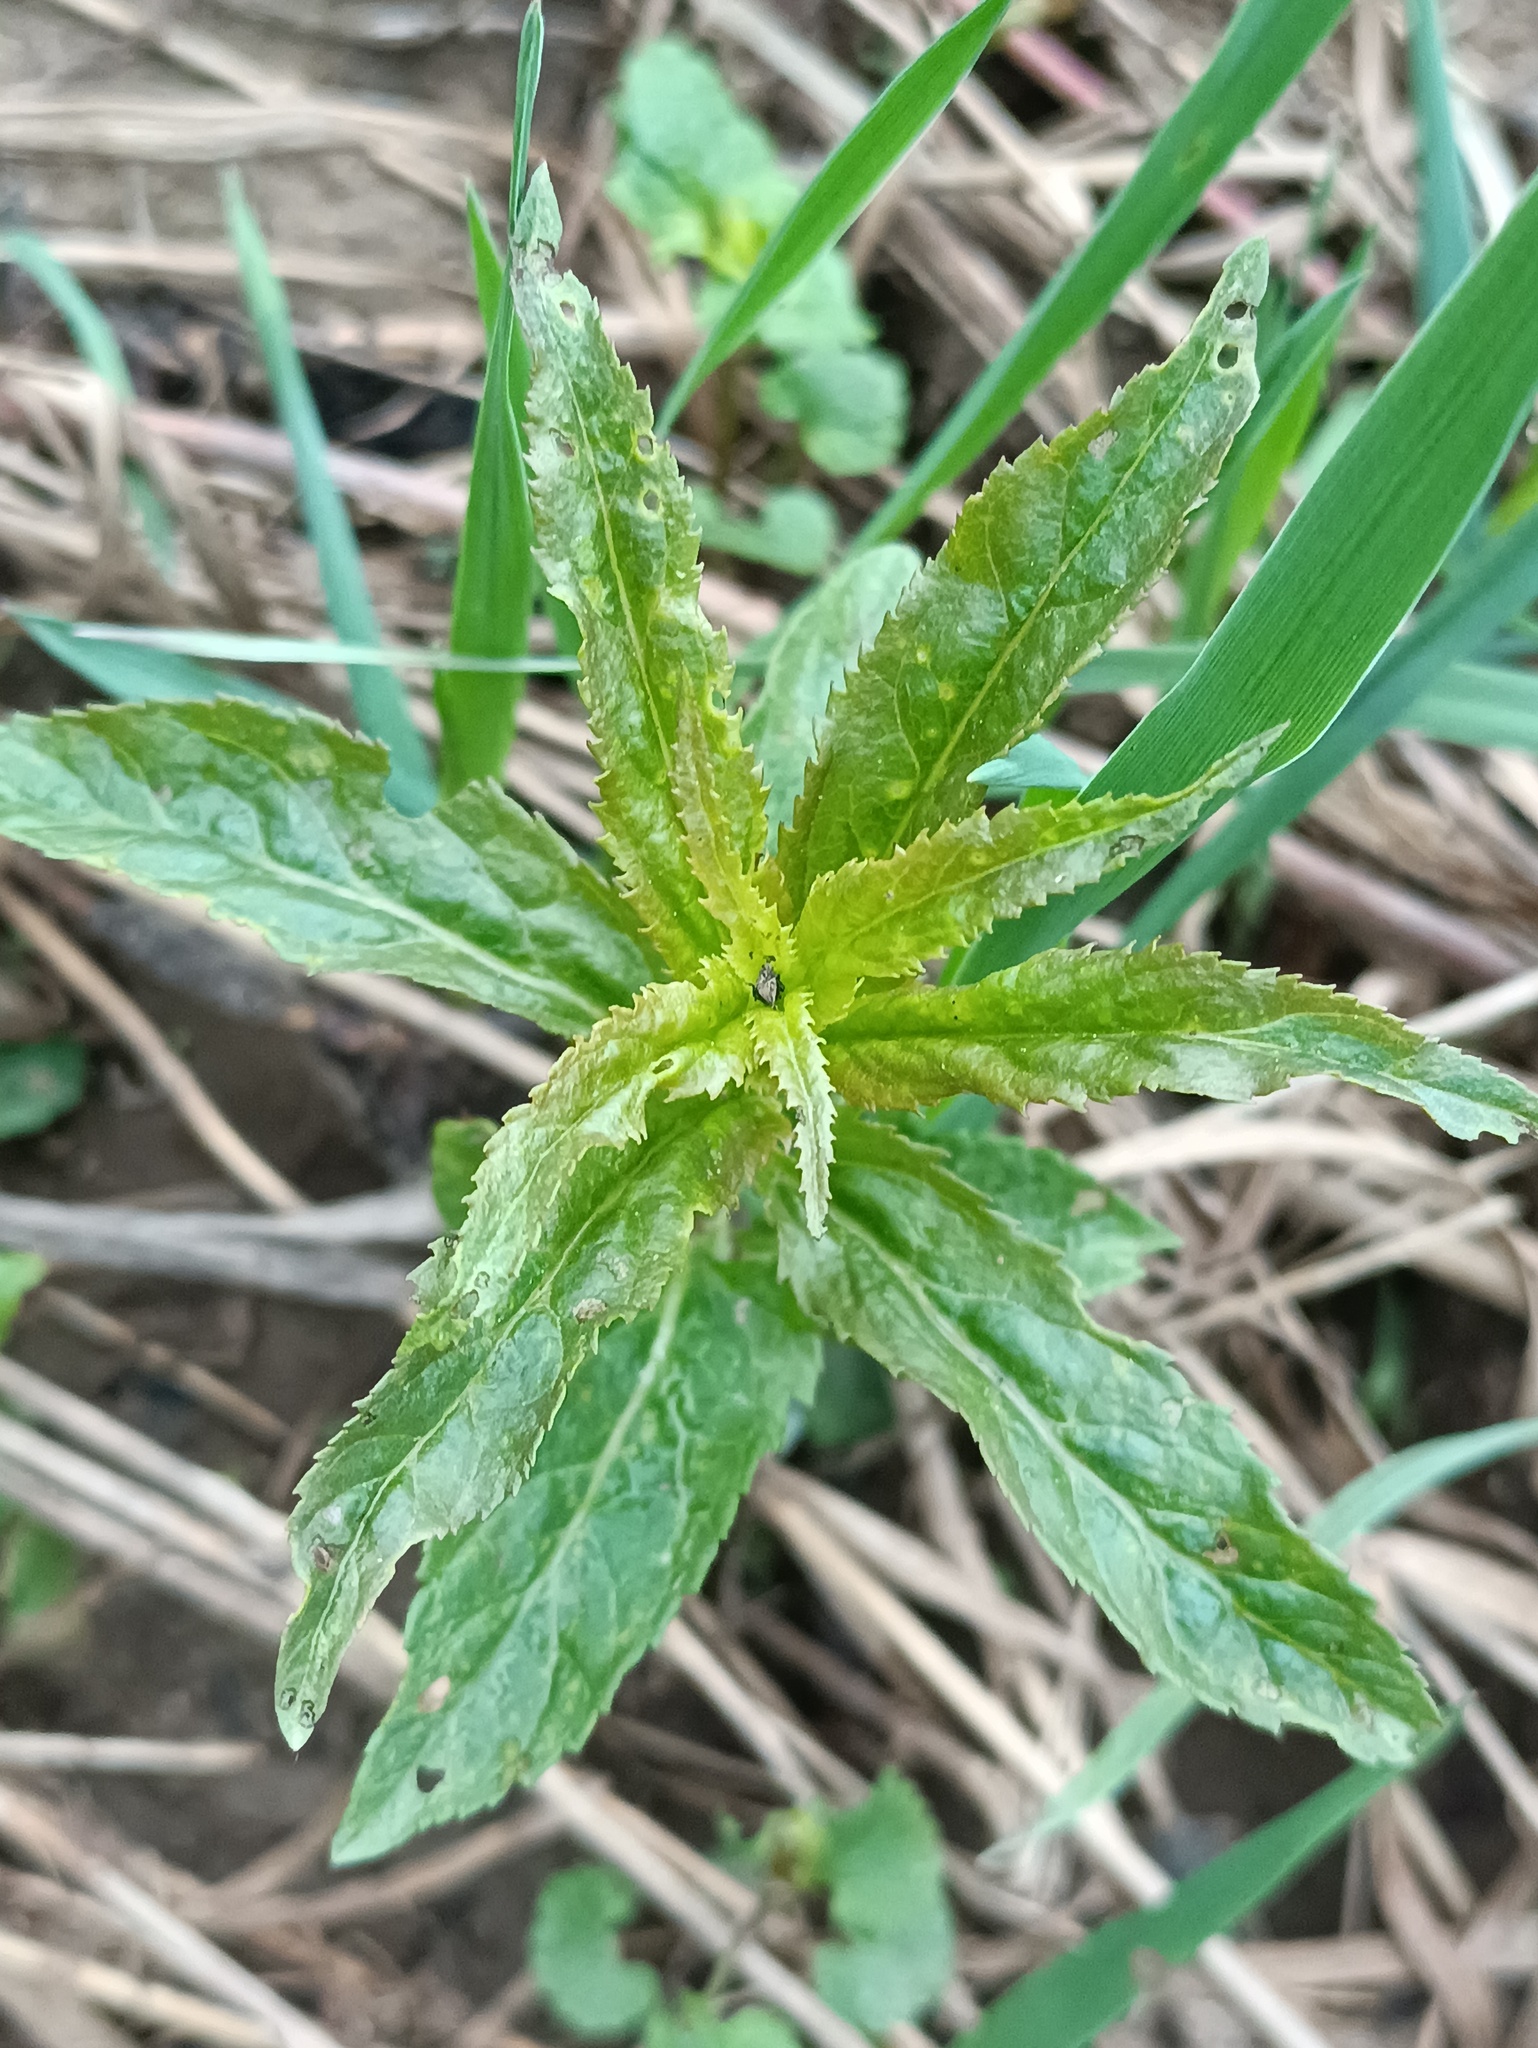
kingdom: Plantae
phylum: Tracheophyta
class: Magnoliopsida
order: Lamiales
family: Plantaginaceae
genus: Veronica
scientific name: Veronica longifolia
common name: Garden speedwell
